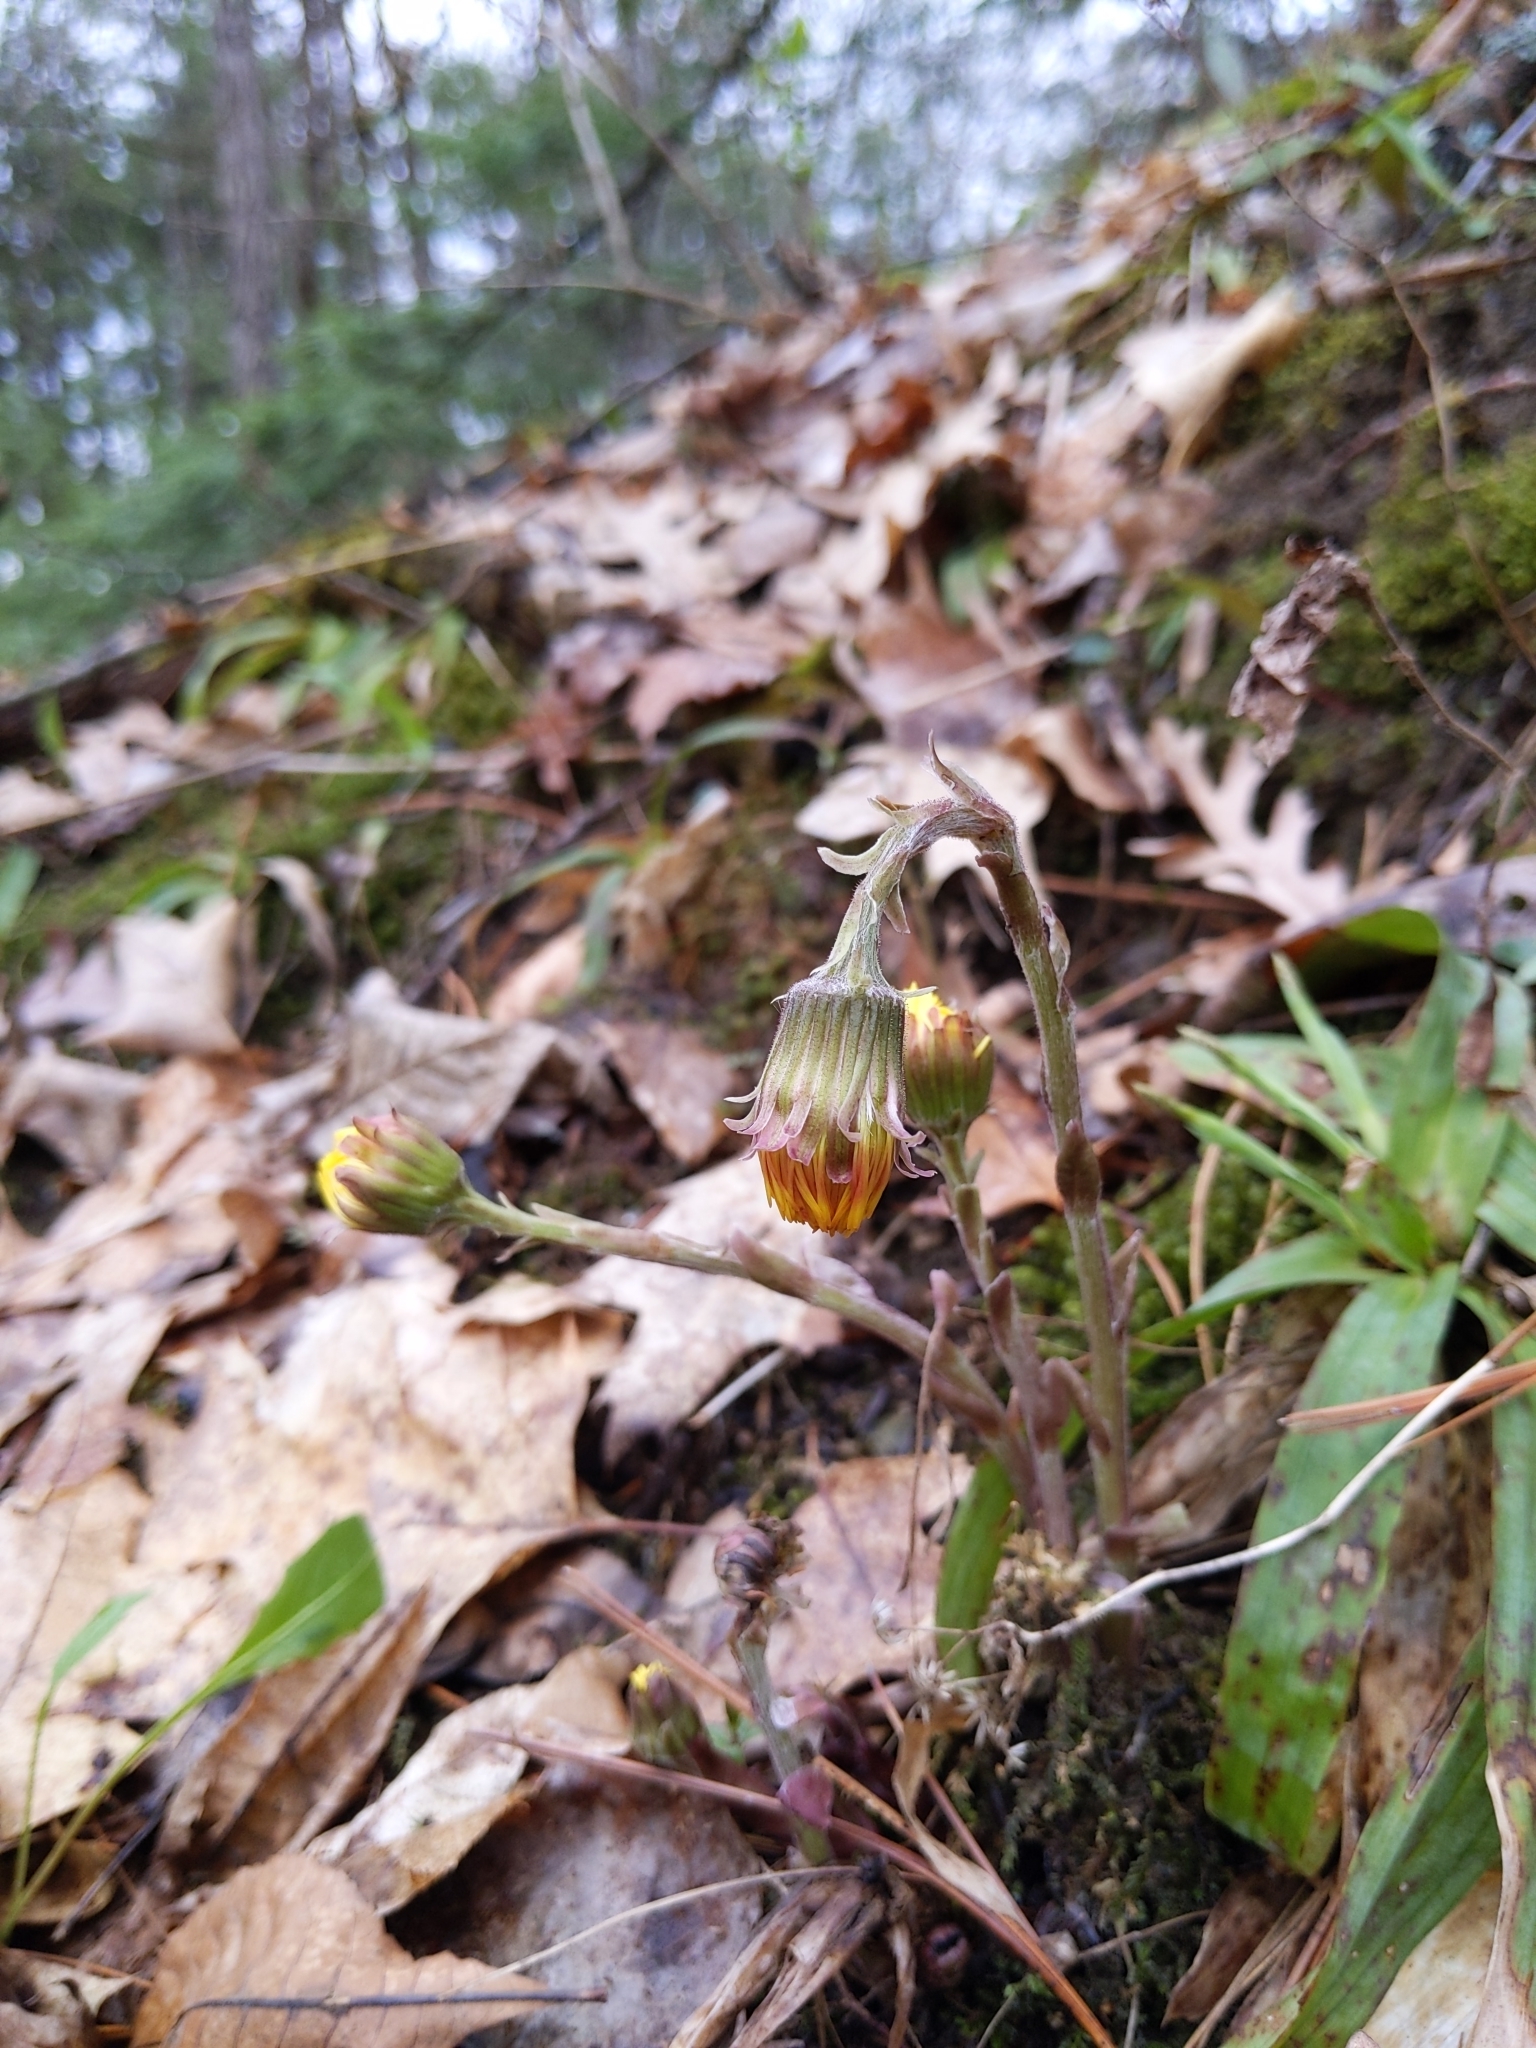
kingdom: Plantae
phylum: Tracheophyta
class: Magnoliopsida
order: Asterales
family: Asteraceae
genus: Tussilago
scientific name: Tussilago farfara
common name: Coltsfoot
